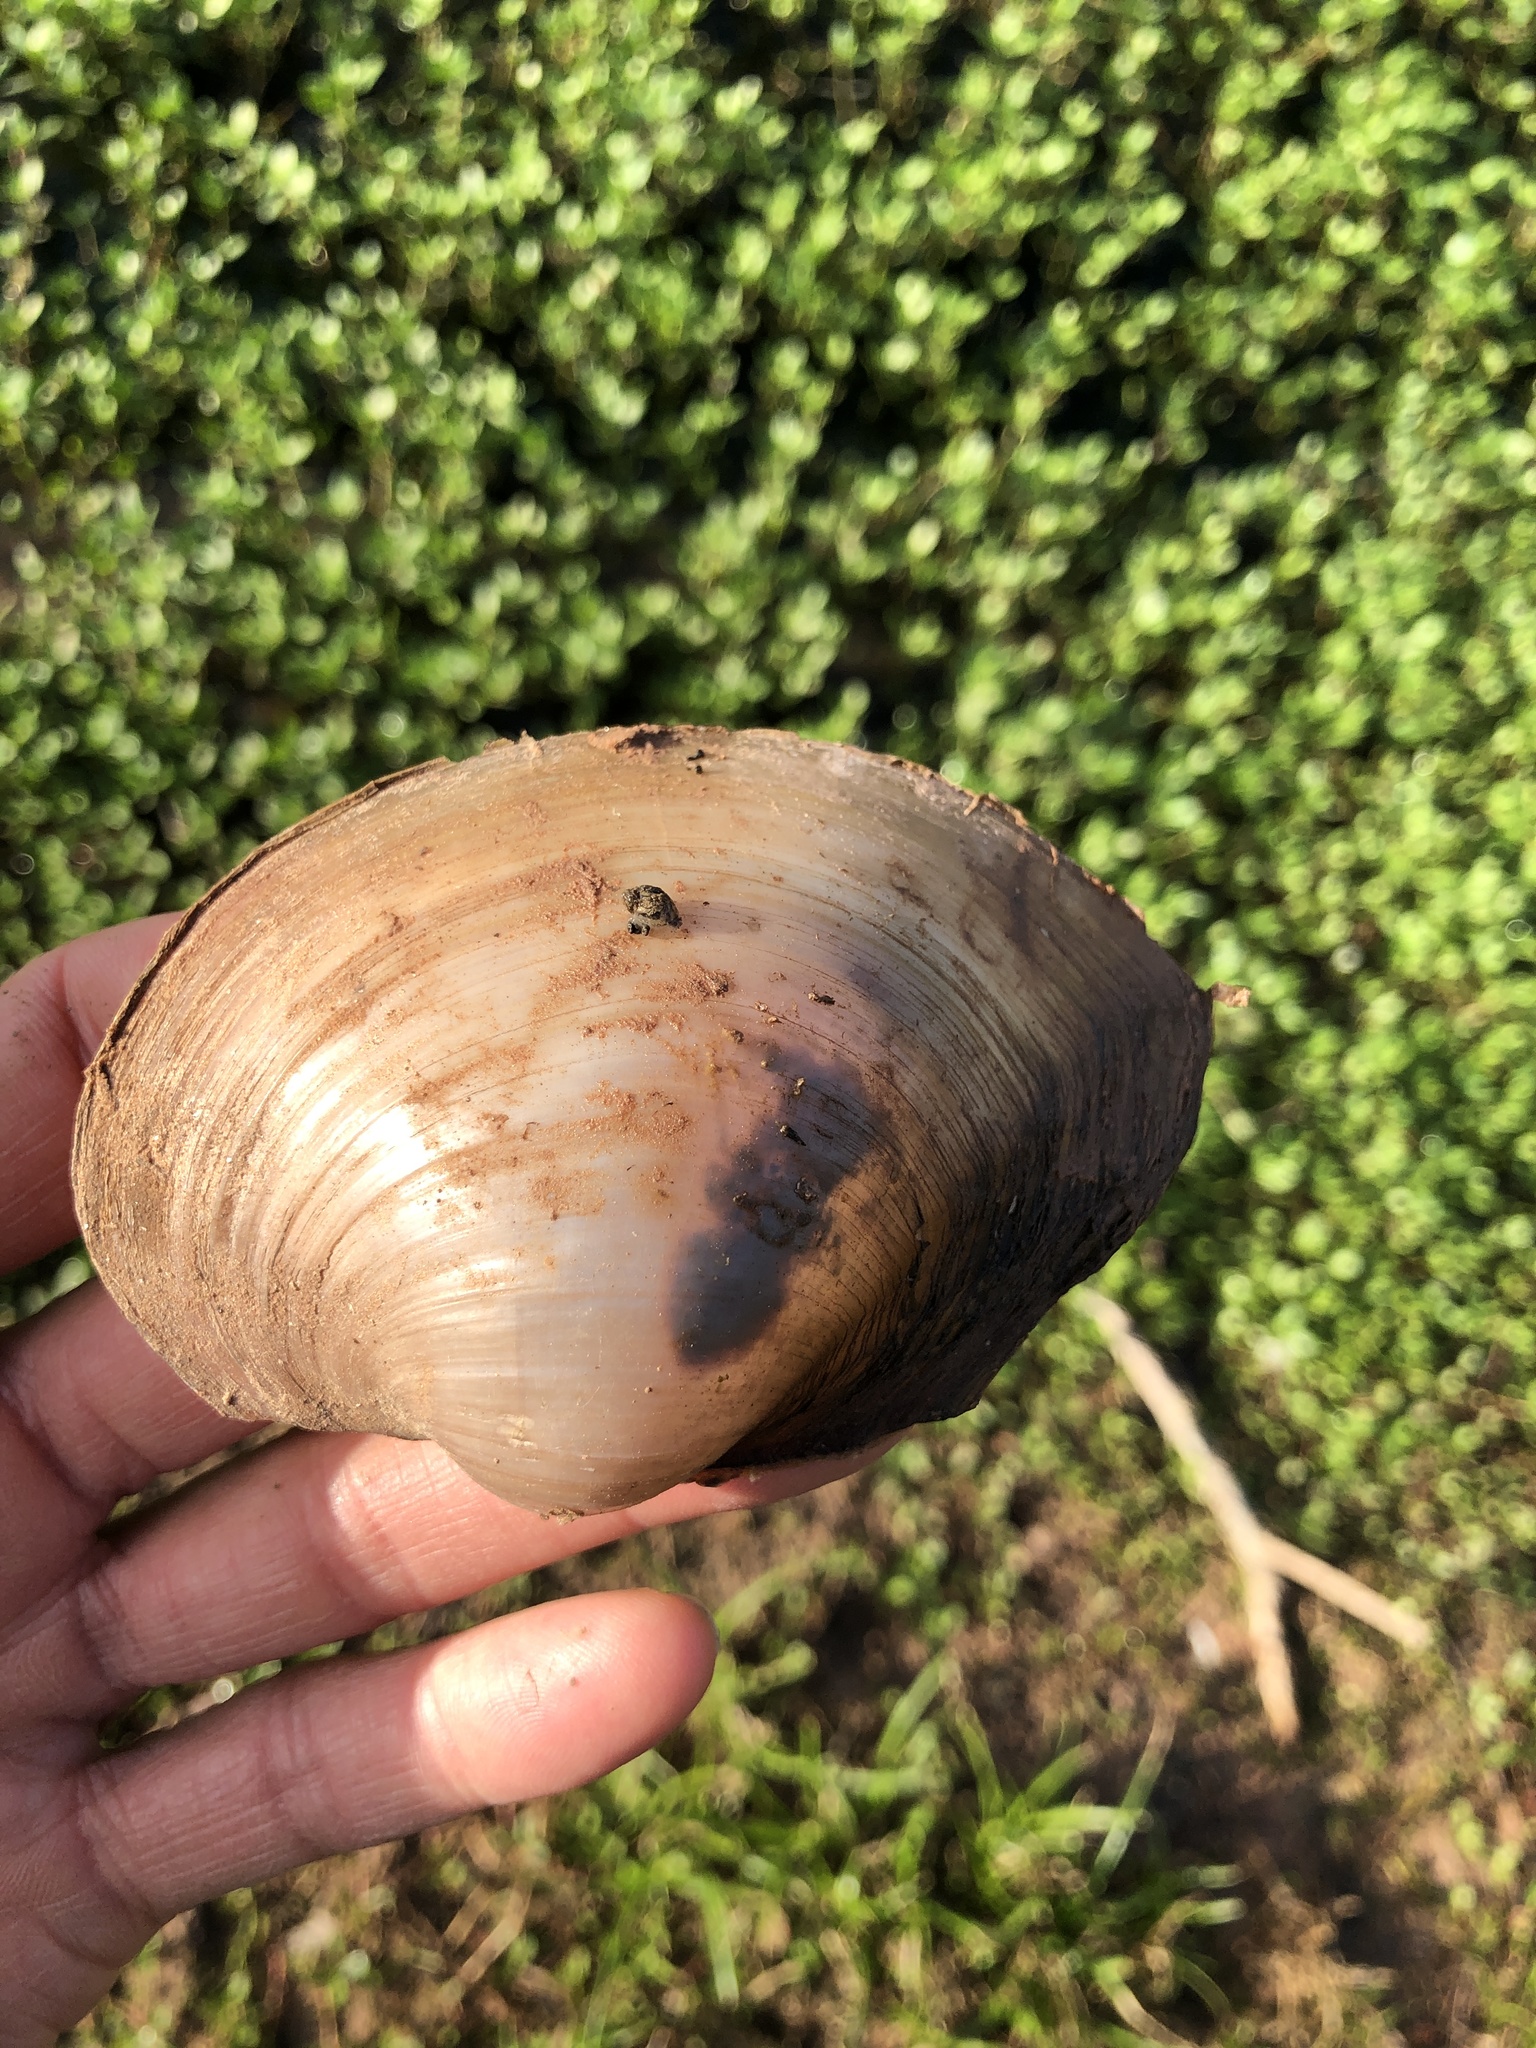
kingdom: Animalia
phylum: Mollusca
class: Bivalvia
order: Unionida
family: Unionidae
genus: Pyganodon
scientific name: Pyganodon grandis
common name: Giant floater
